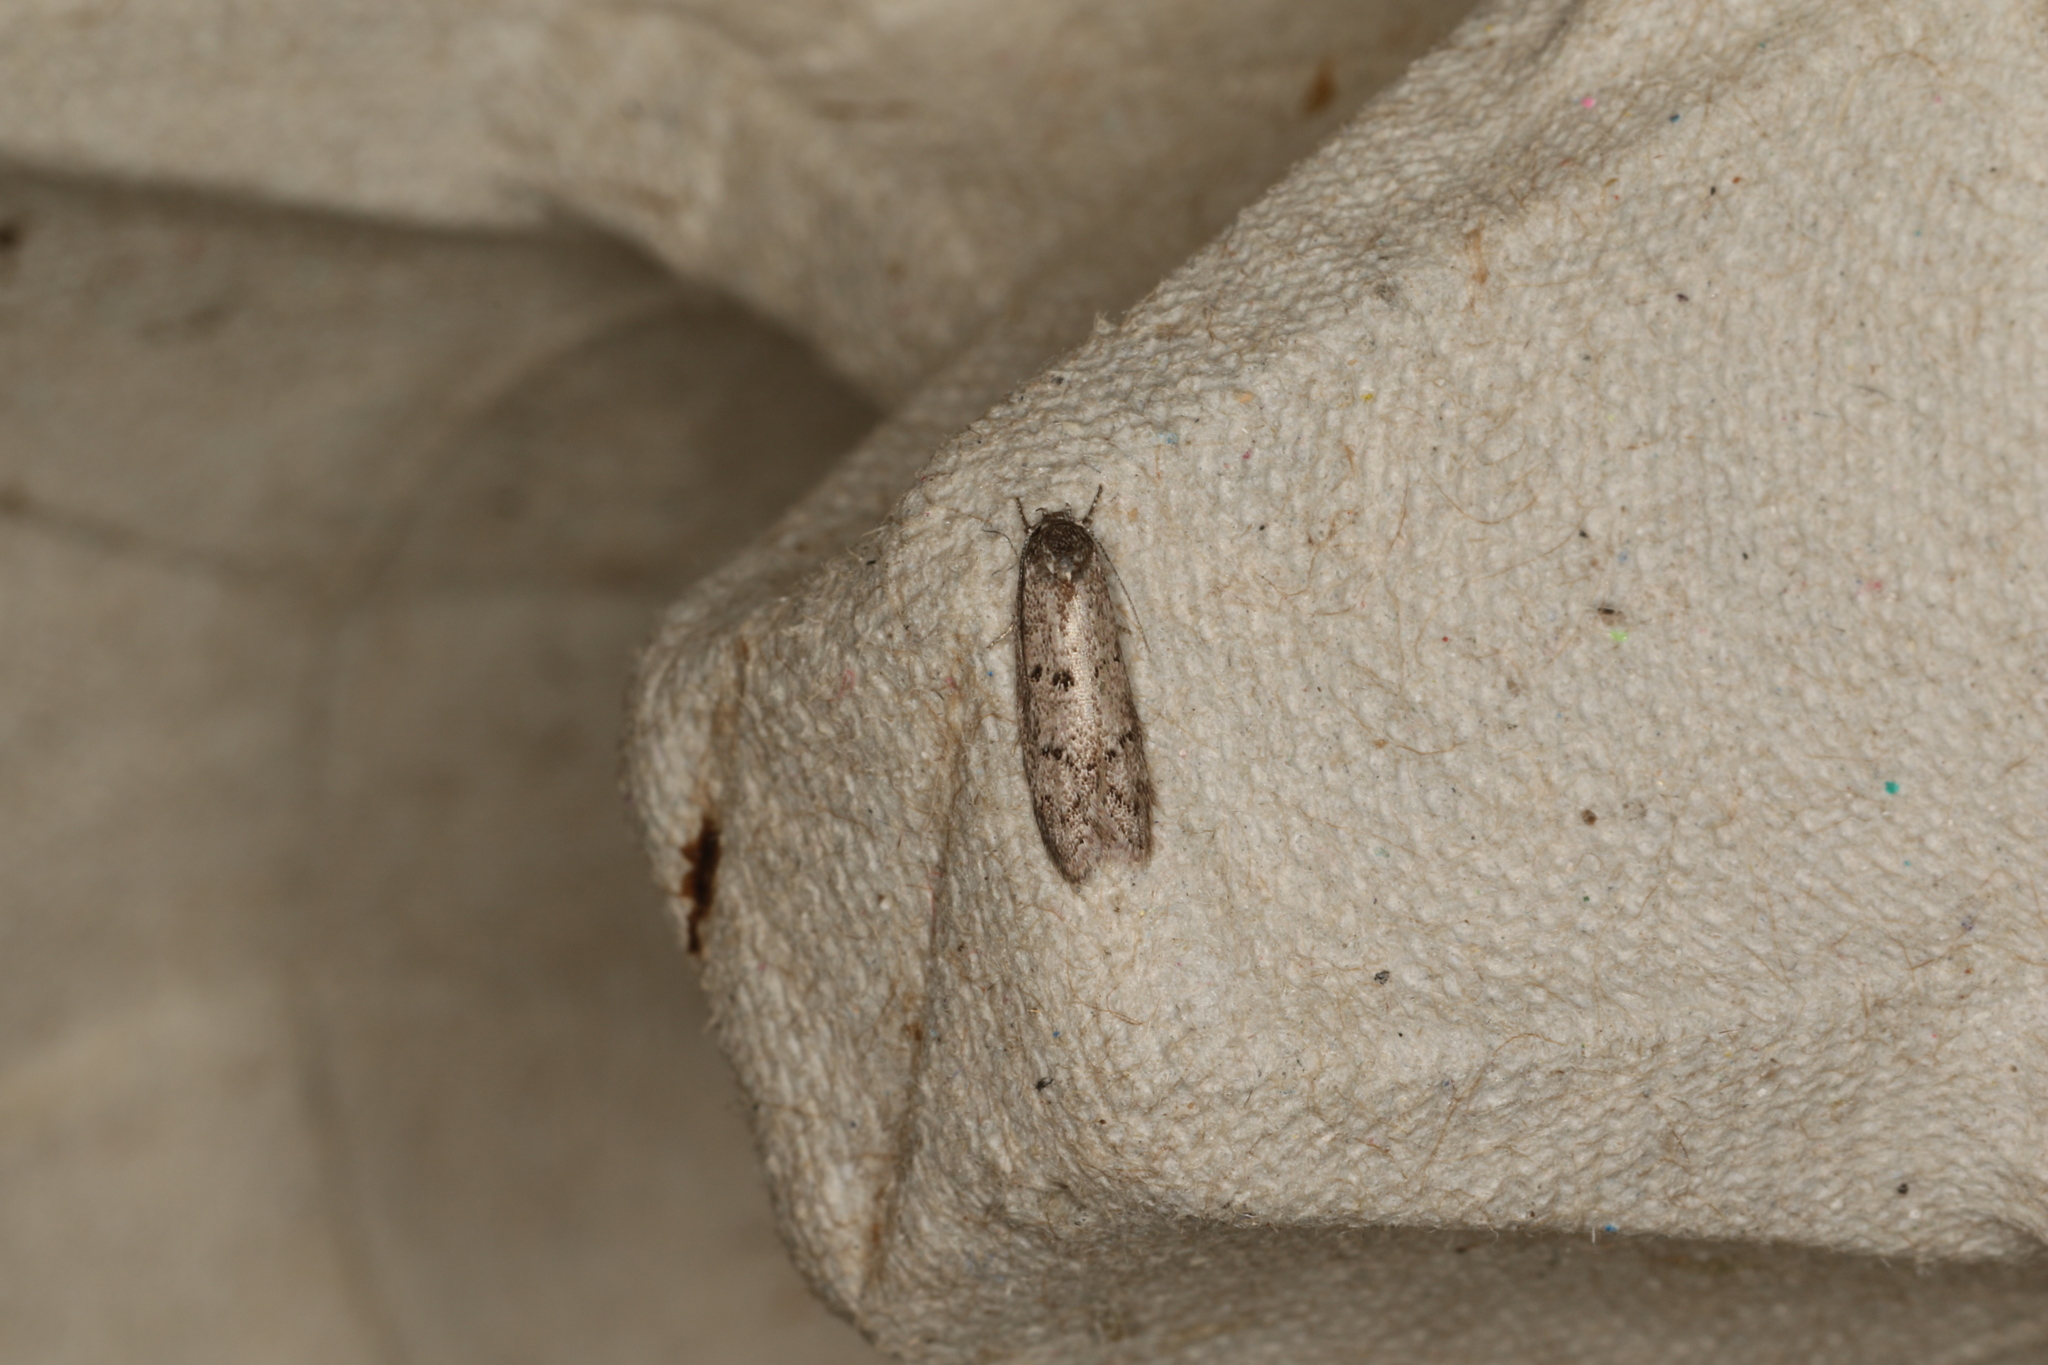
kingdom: Animalia
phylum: Arthropoda
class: Insecta
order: Lepidoptera
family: Oecophoridae
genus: Heterozyga
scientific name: Heterozyga coppatias
